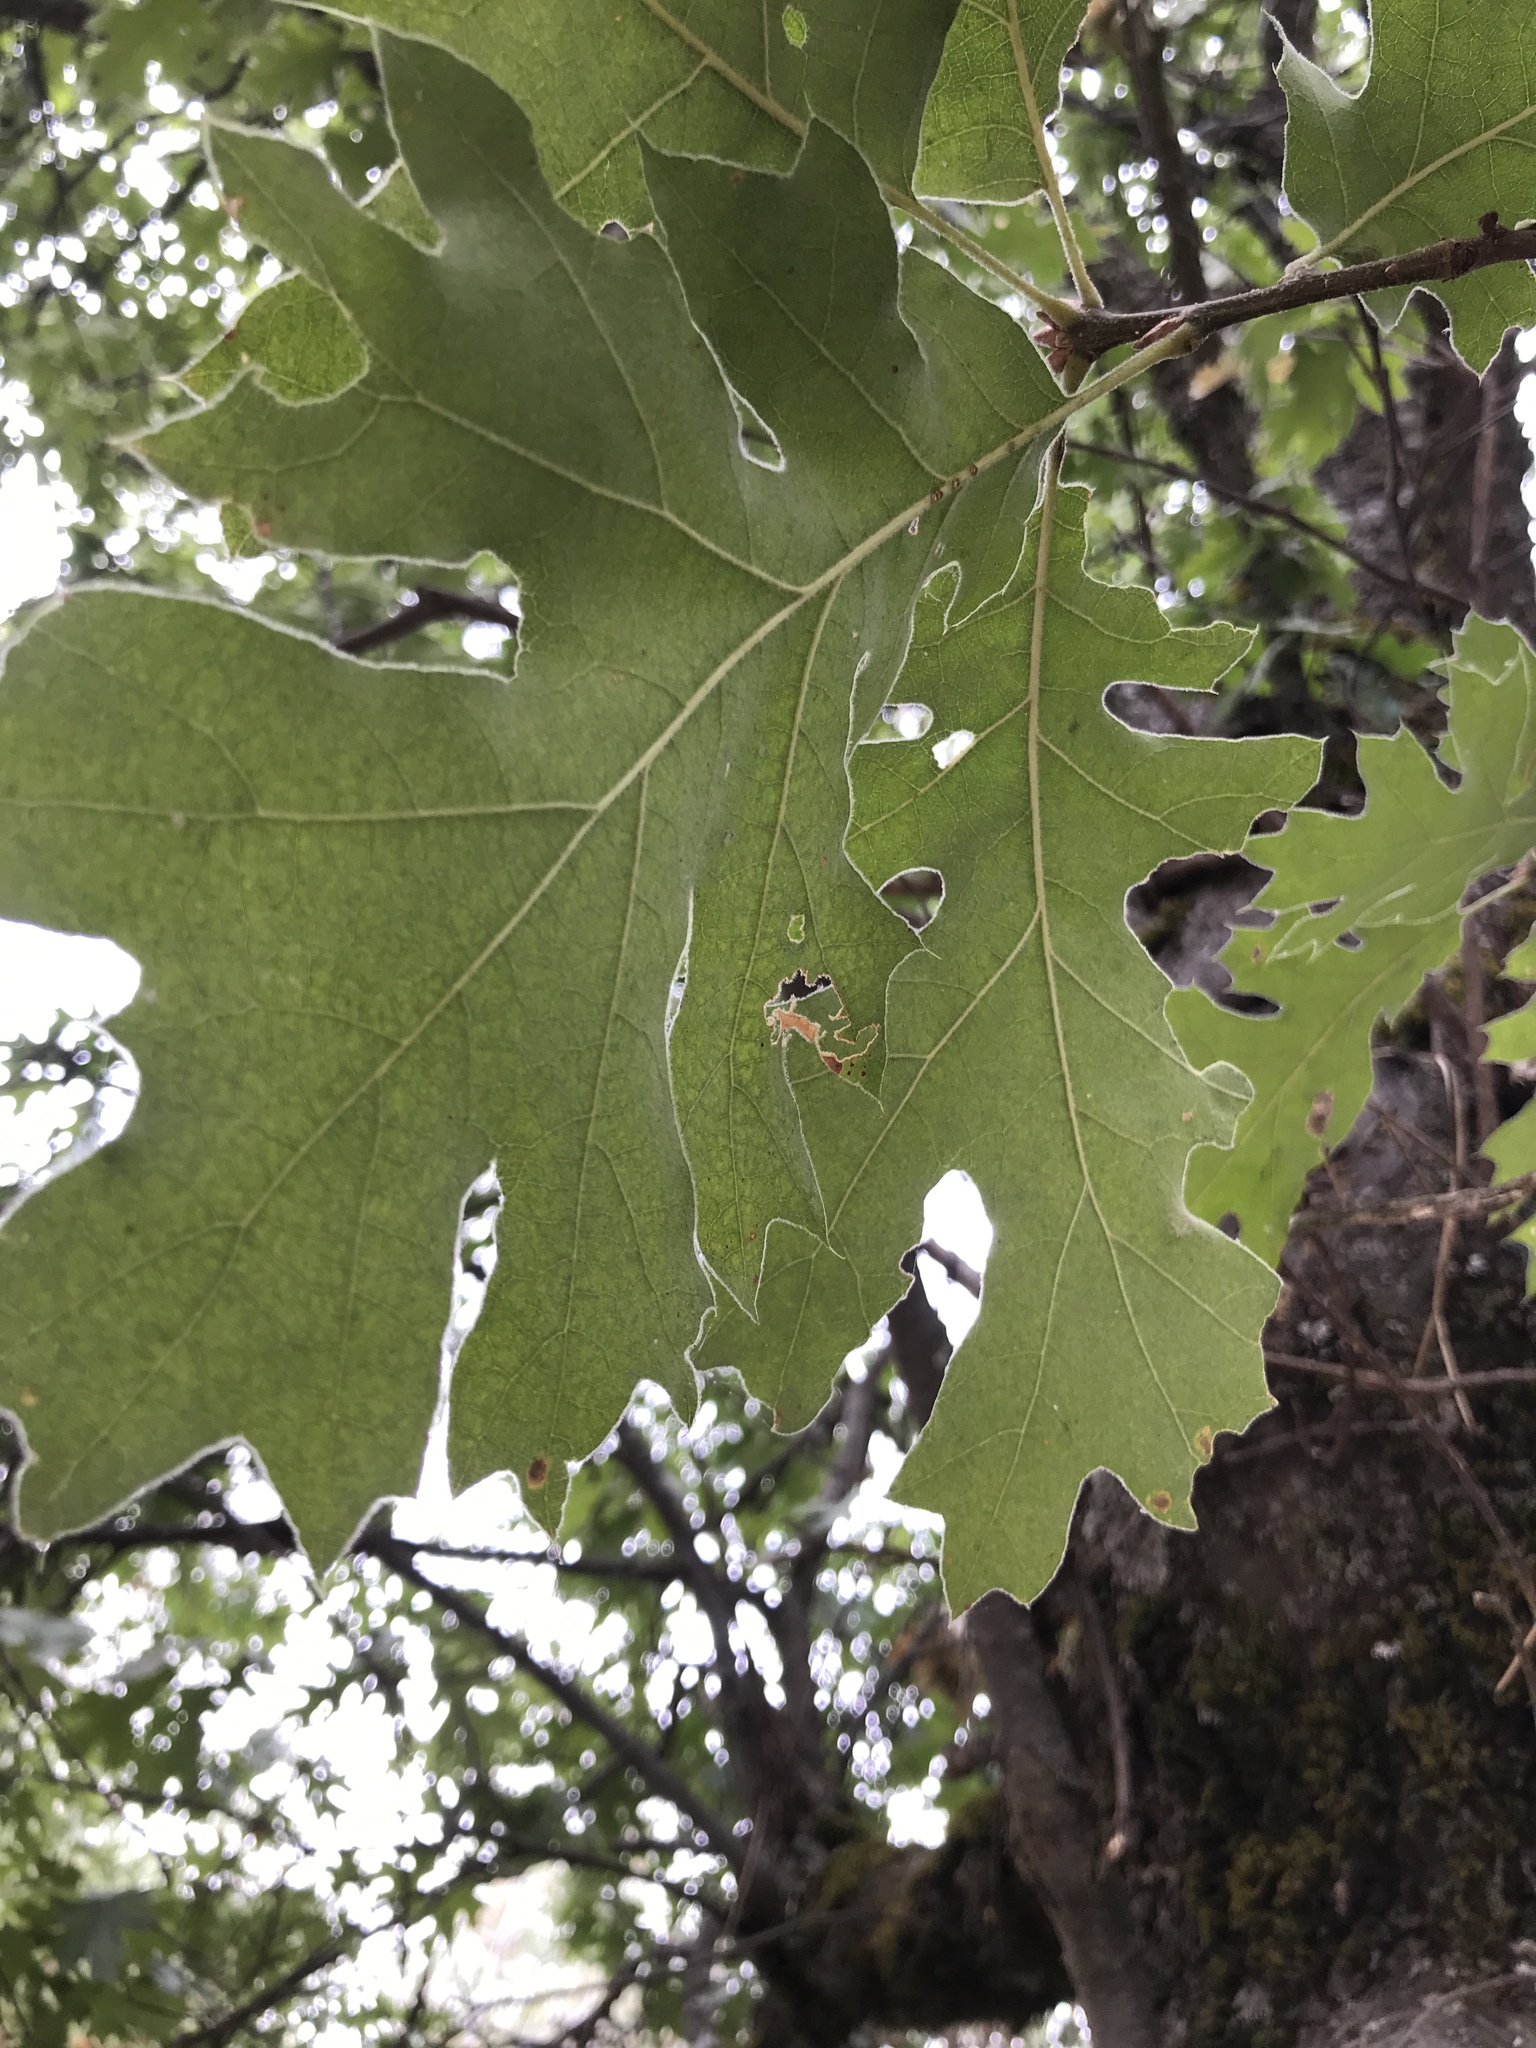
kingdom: Plantae
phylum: Tracheophyta
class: Magnoliopsida
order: Fagales
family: Fagaceae
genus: Quercus
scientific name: Quercus kelloggii
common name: California black oak
